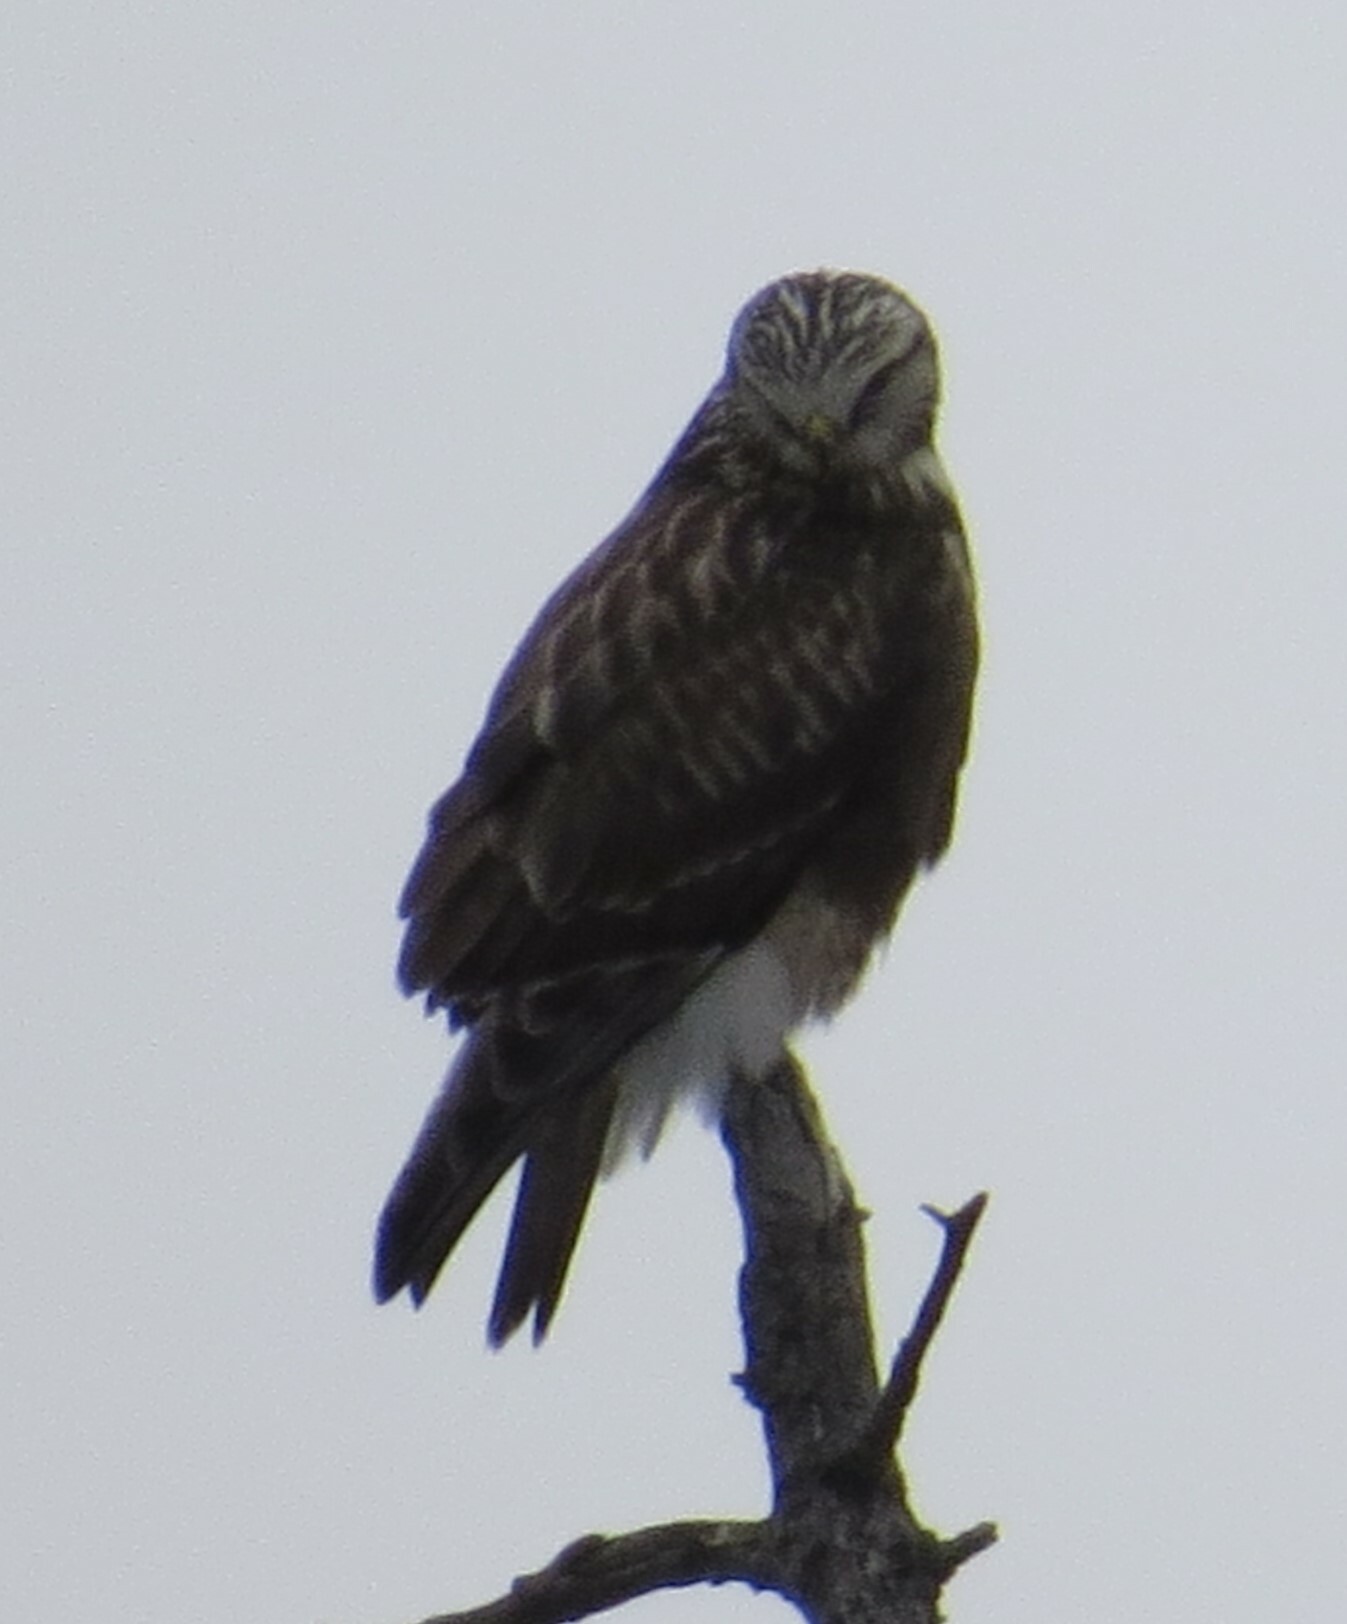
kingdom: Animalia
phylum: Chordata
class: Aves
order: Accipitriformes
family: Accipitridae
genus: Buteo
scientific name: Buteo lagopus
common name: Rough-legged buzzard
